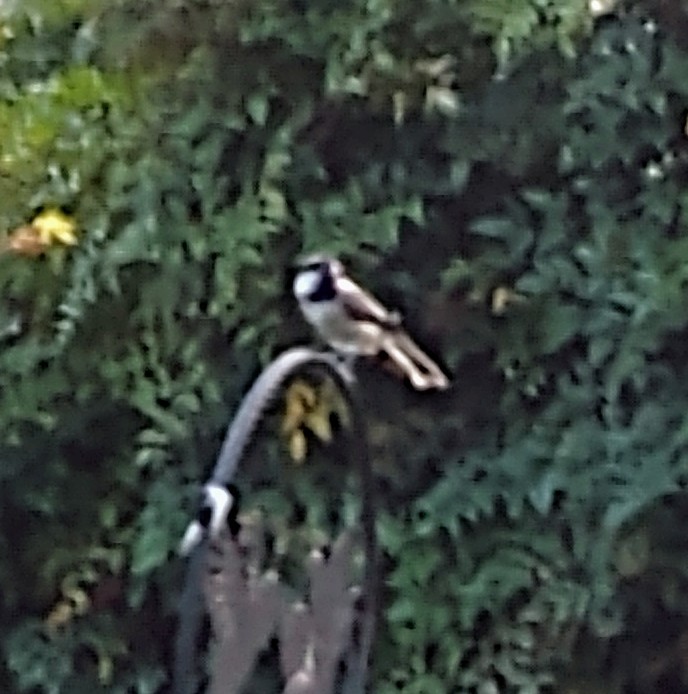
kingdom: Animalia
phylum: Chordata
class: Aves
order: Passeriformes
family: Paridae
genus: Poecile
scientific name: Poecile carolinensis
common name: Carolina chickadee
